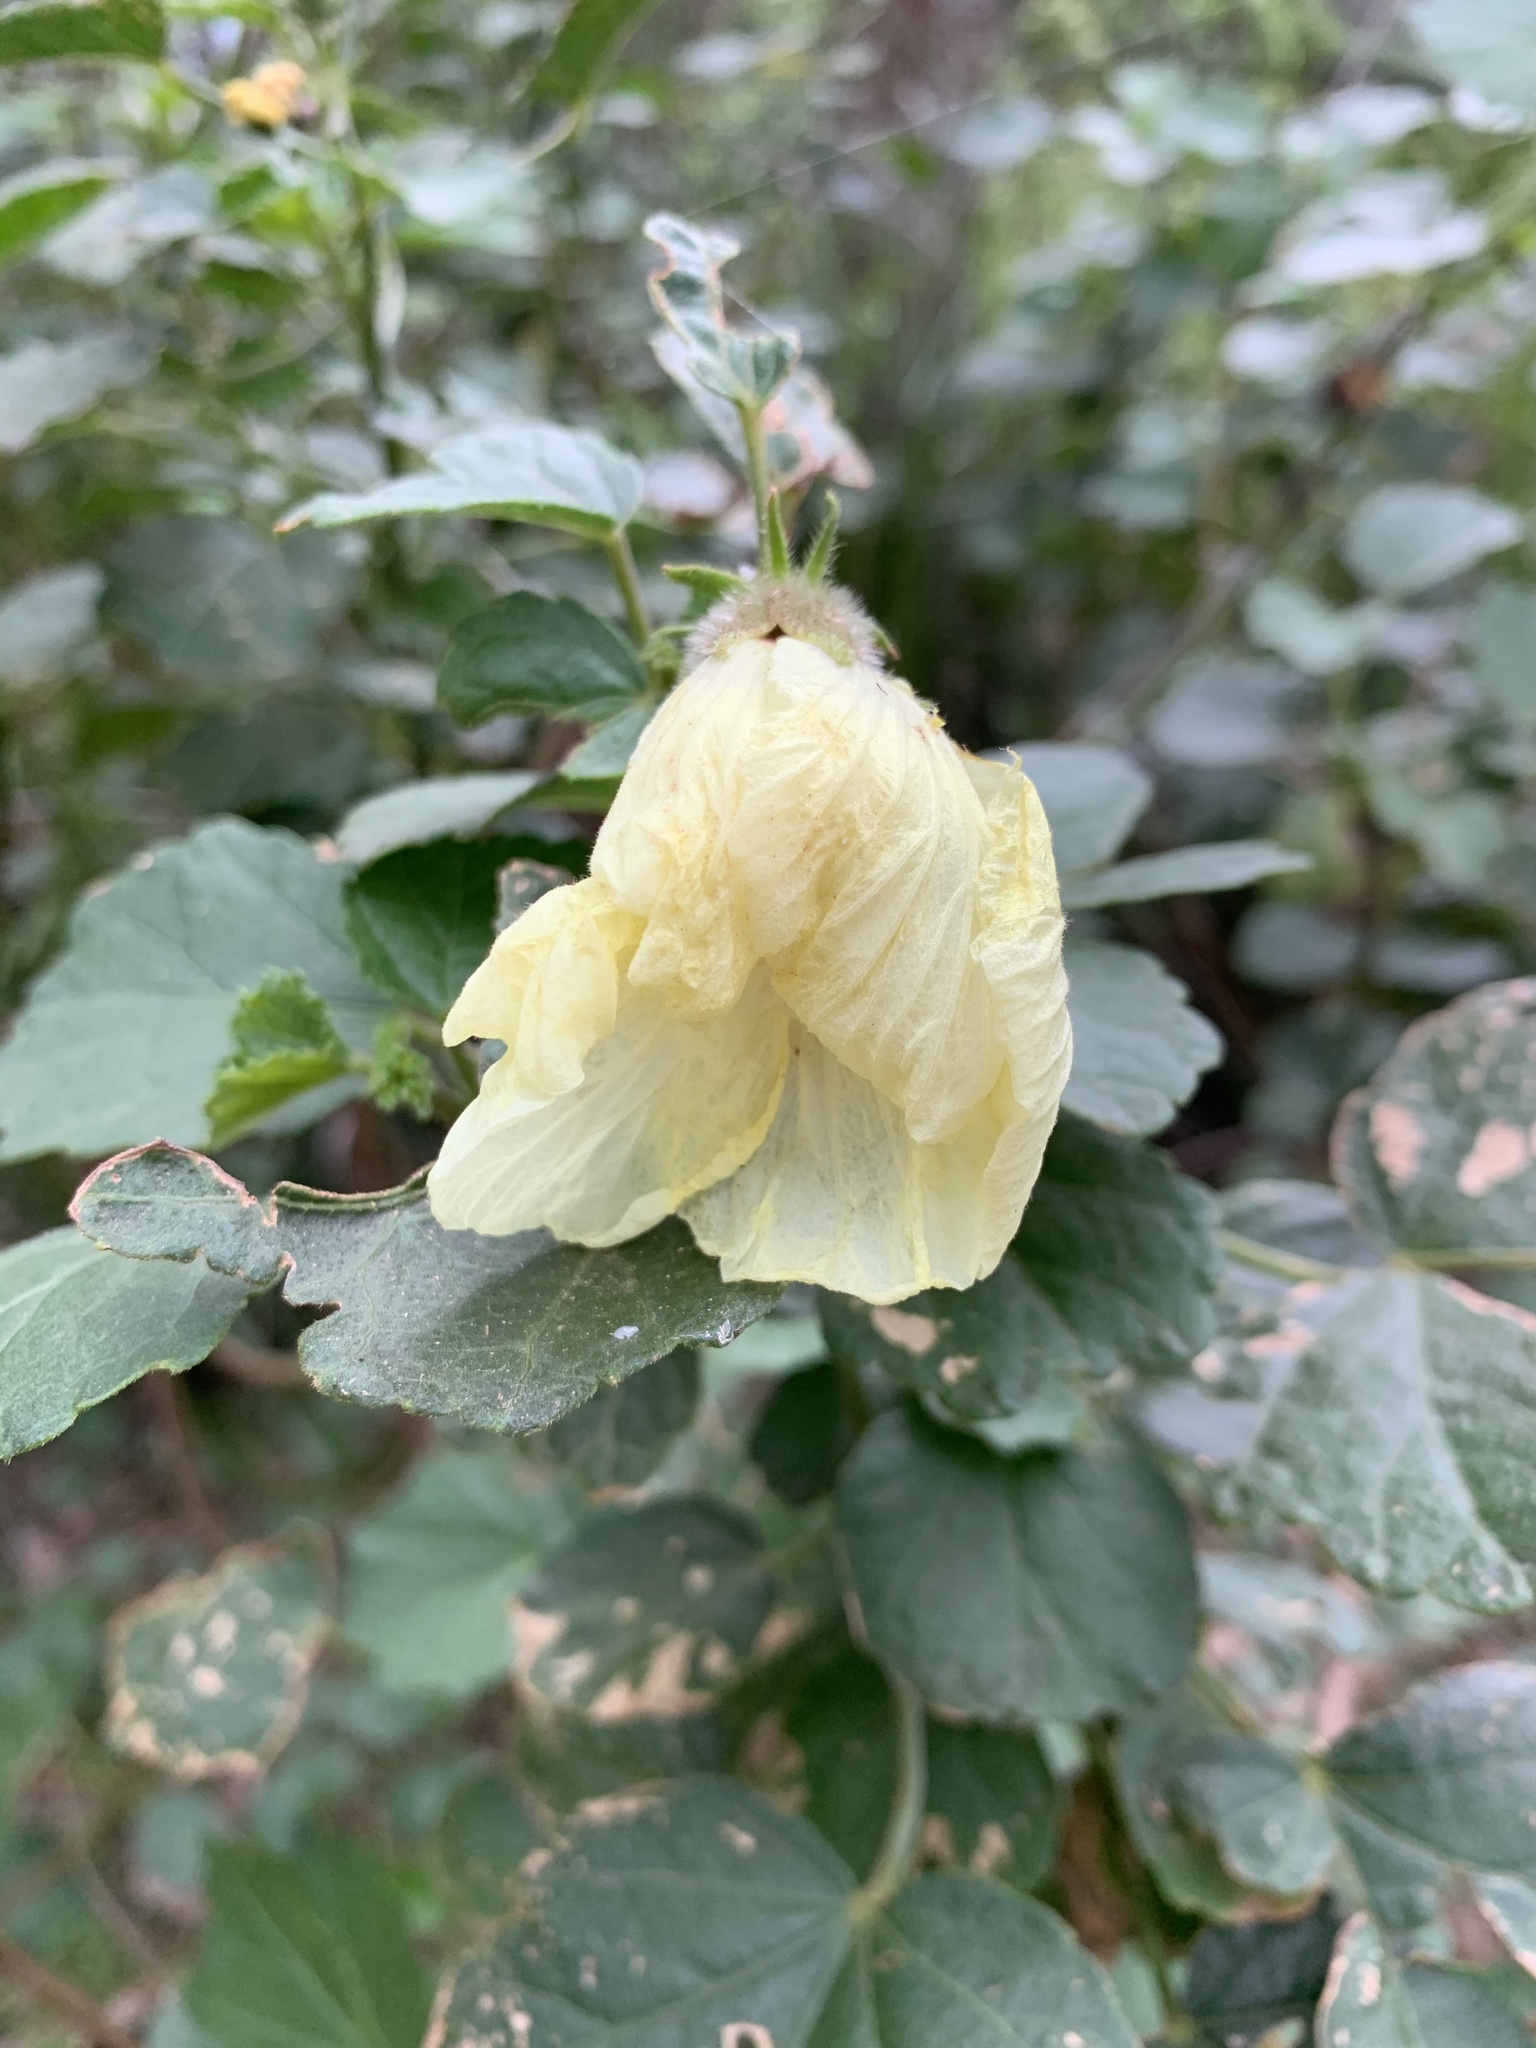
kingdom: Plantae
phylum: Tracheophyta
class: Magnoliopsida
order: Malvales
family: Malvaceae
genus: Hibiscus
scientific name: Hibiscus diversifolius
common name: Cape hibiscus
